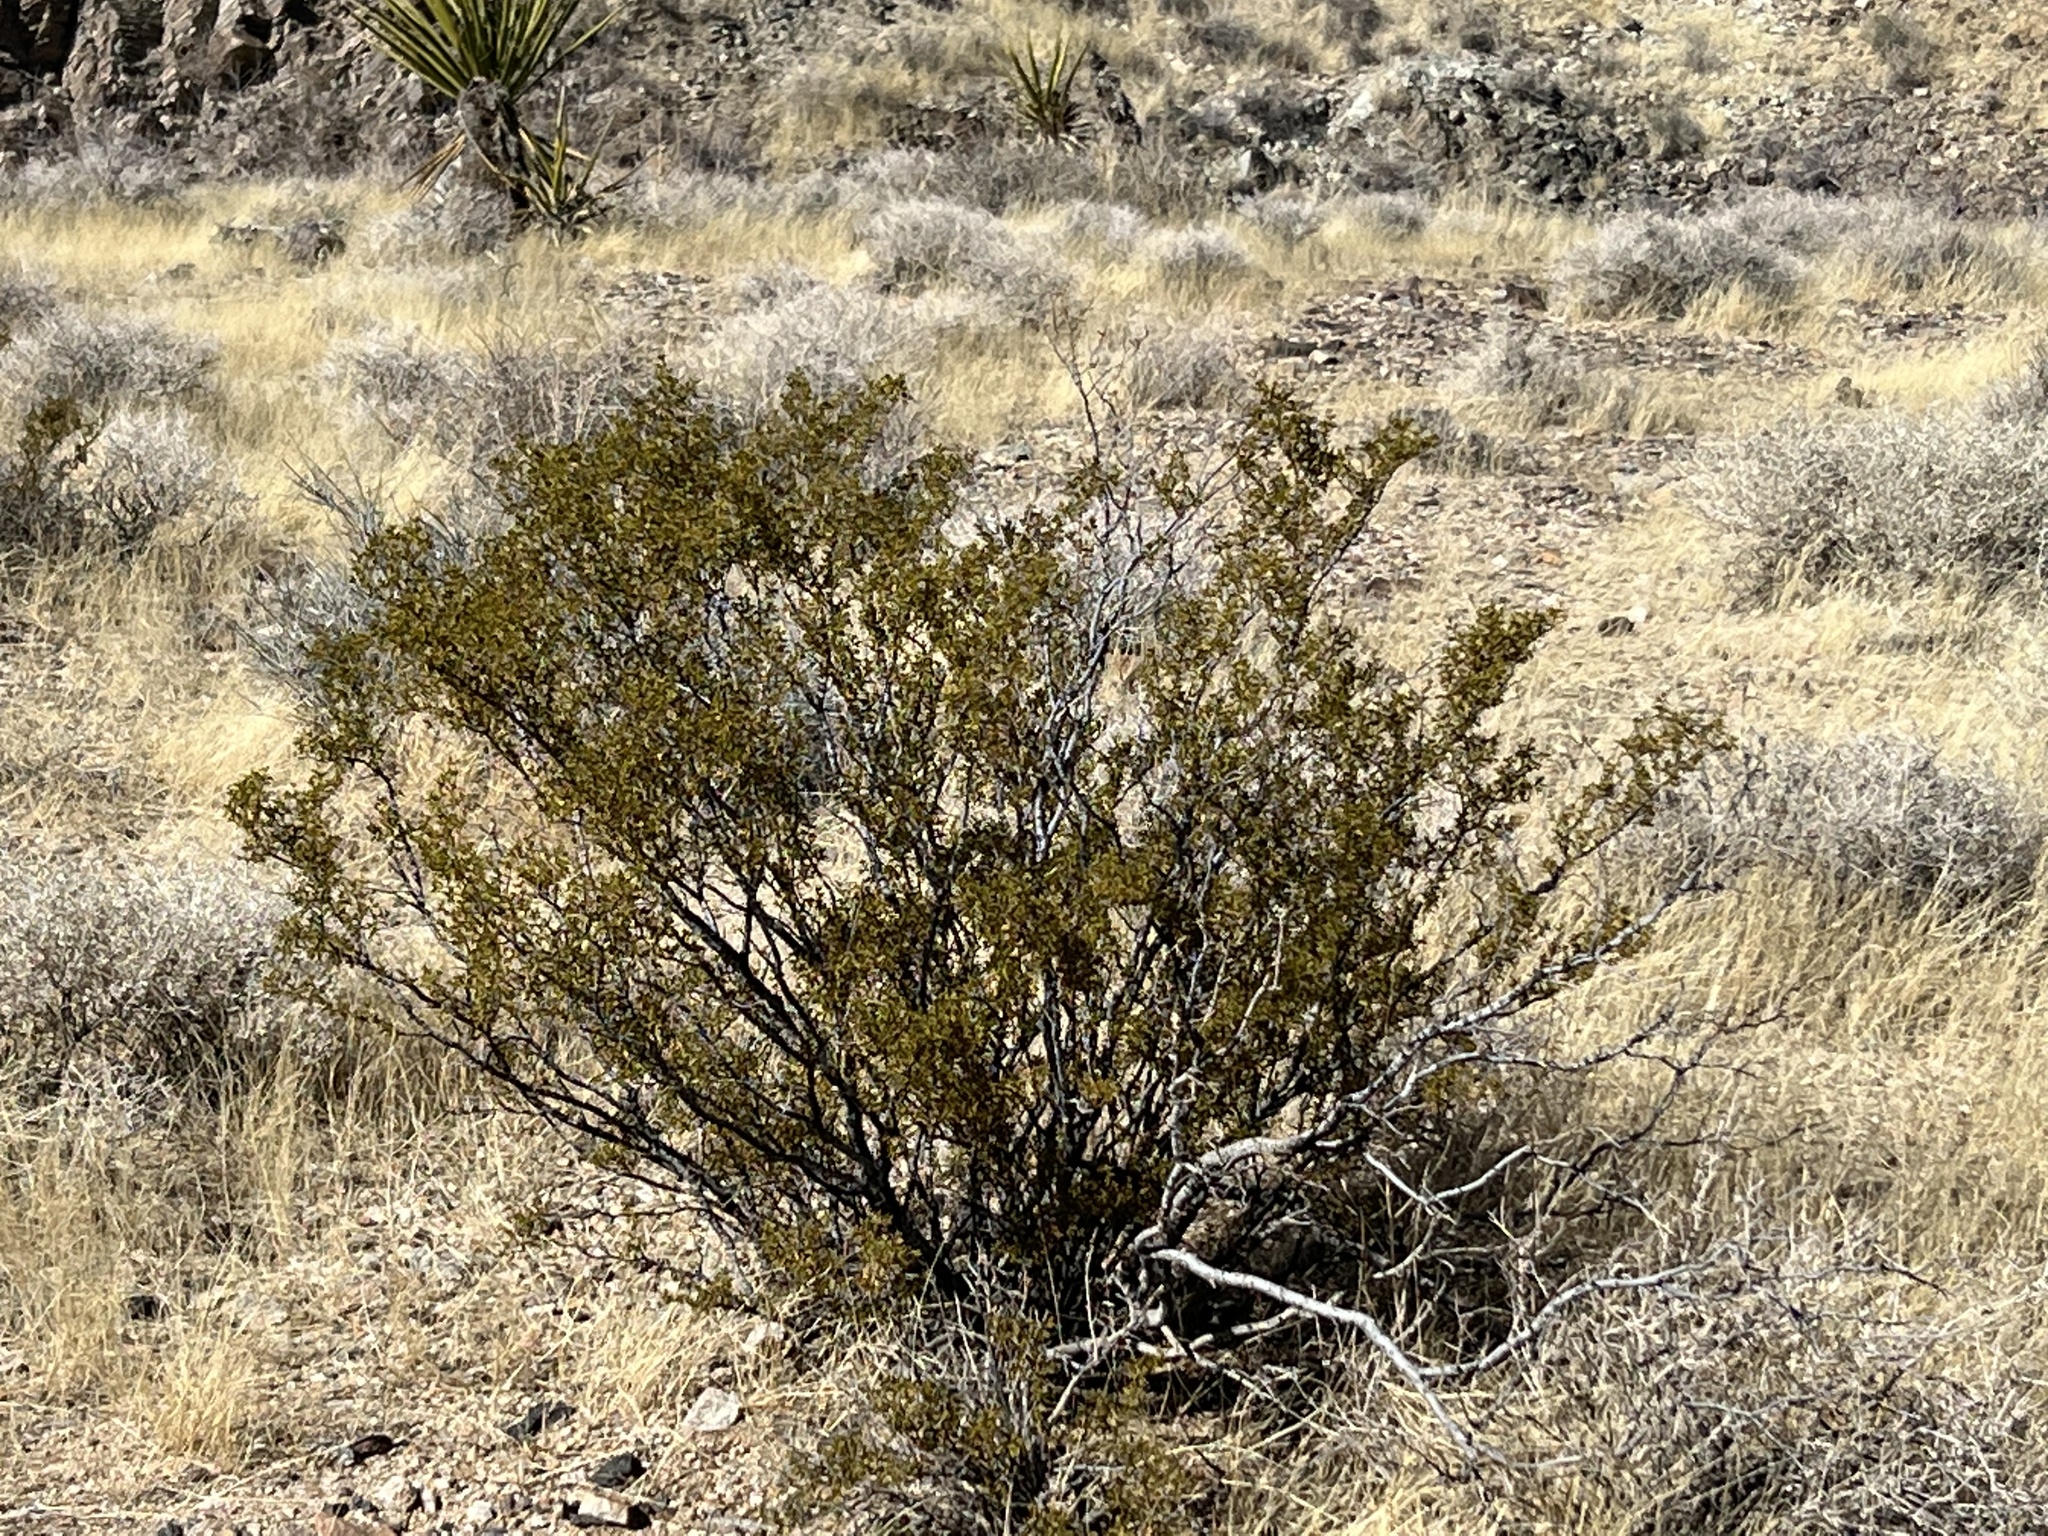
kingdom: Plantae
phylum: Tracheophyta
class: Magnoliopsida
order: Zygophyllales
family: Zygophyllaceae
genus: Larrea
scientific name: Larrea tridentata
